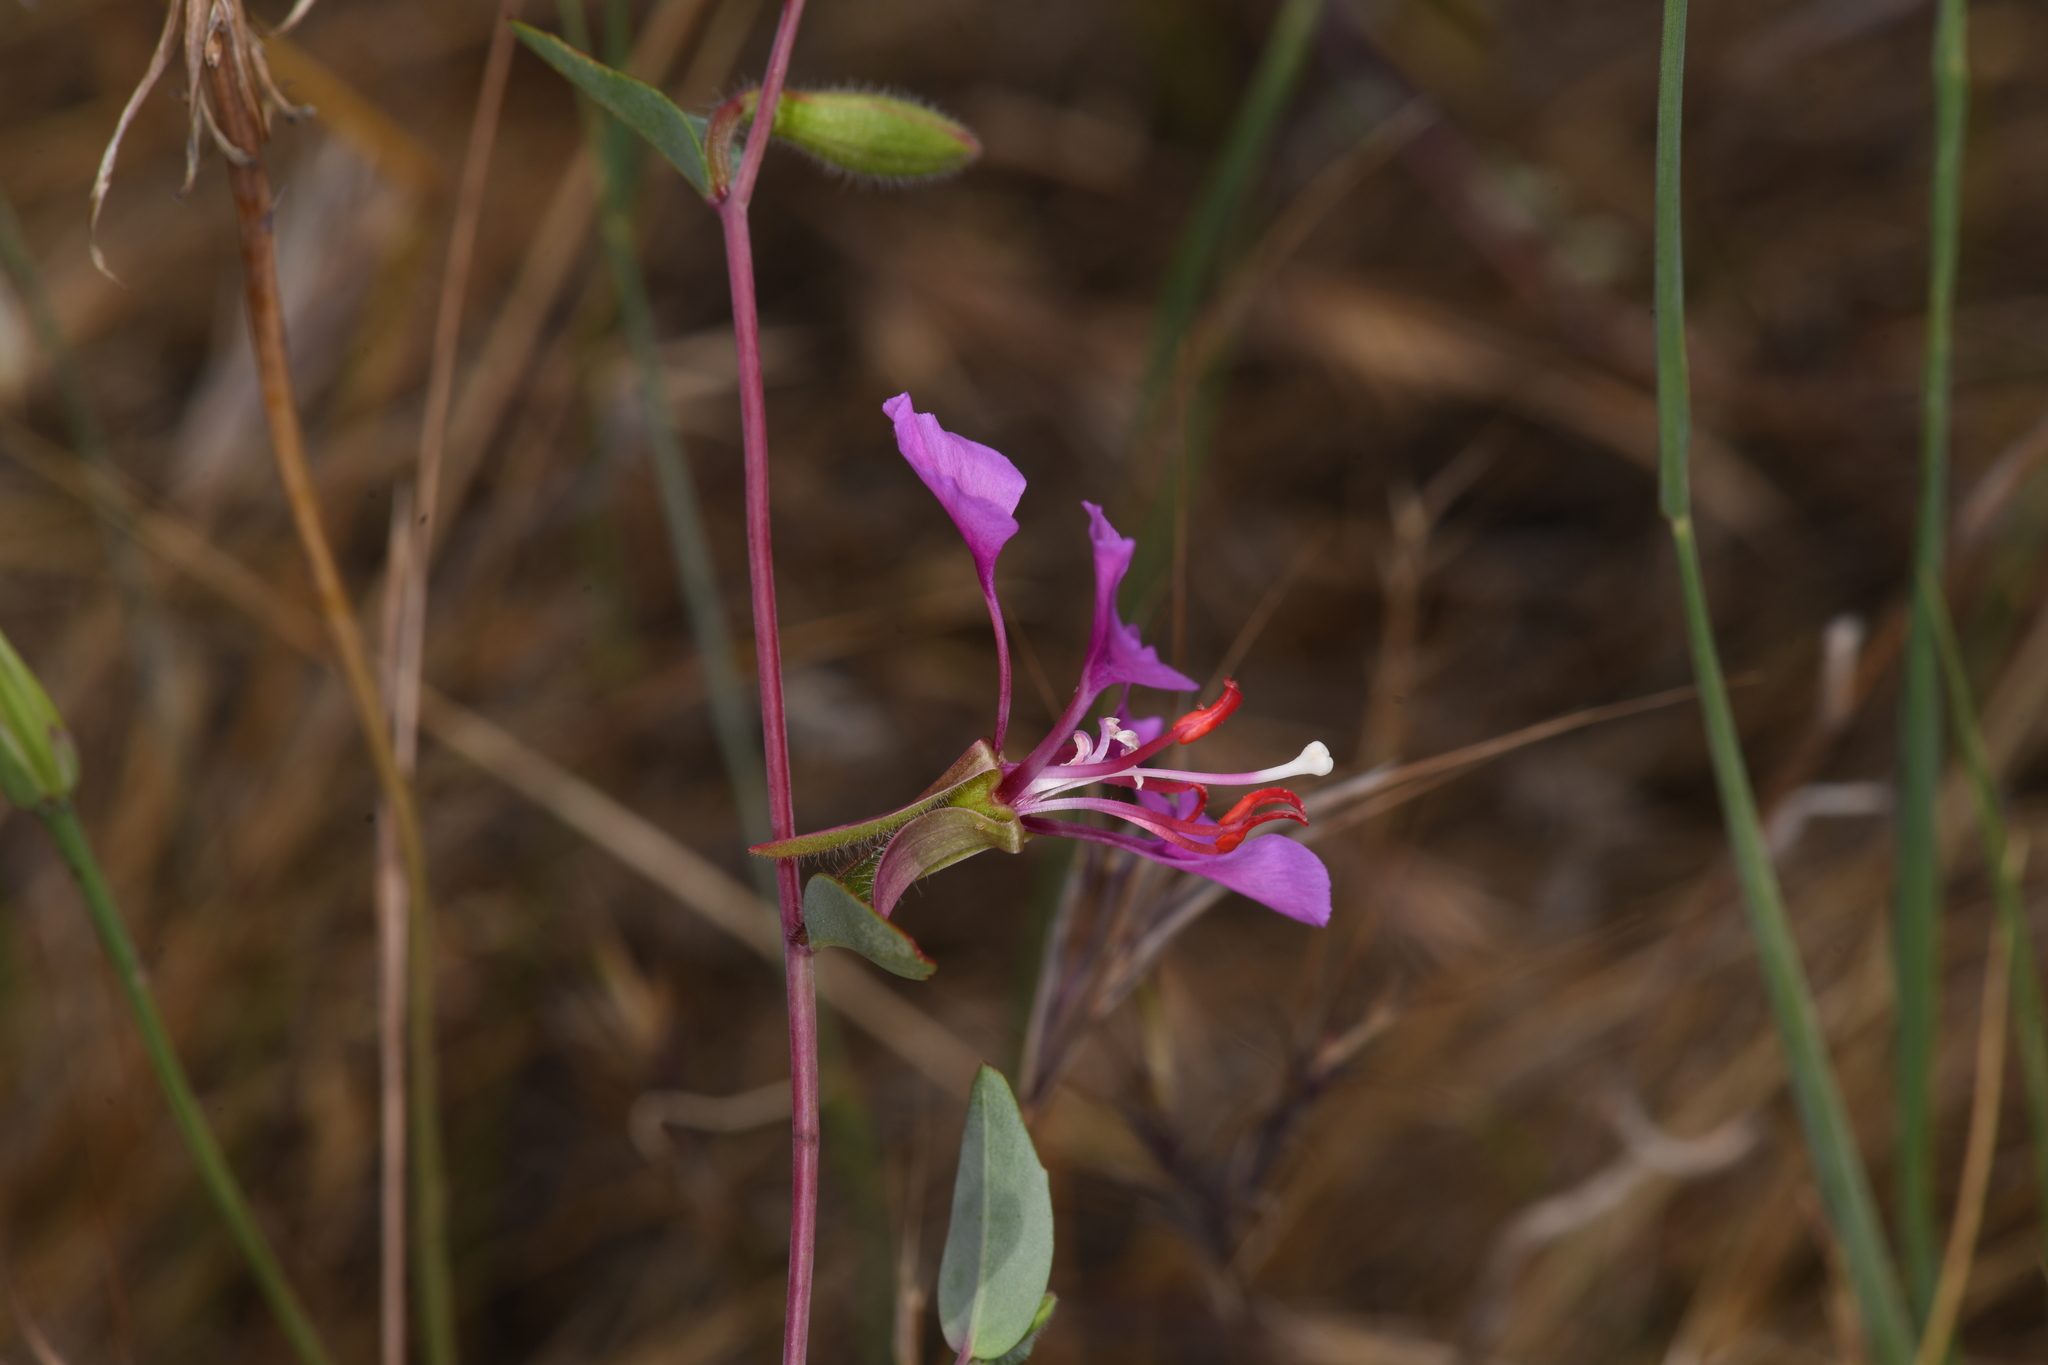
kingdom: Plantae
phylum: Tracheophyta
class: Magnoliopsida
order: Myrtales
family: Onagraceae
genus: Clarkia
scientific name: Clarkia unguiculata
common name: Clarkia
